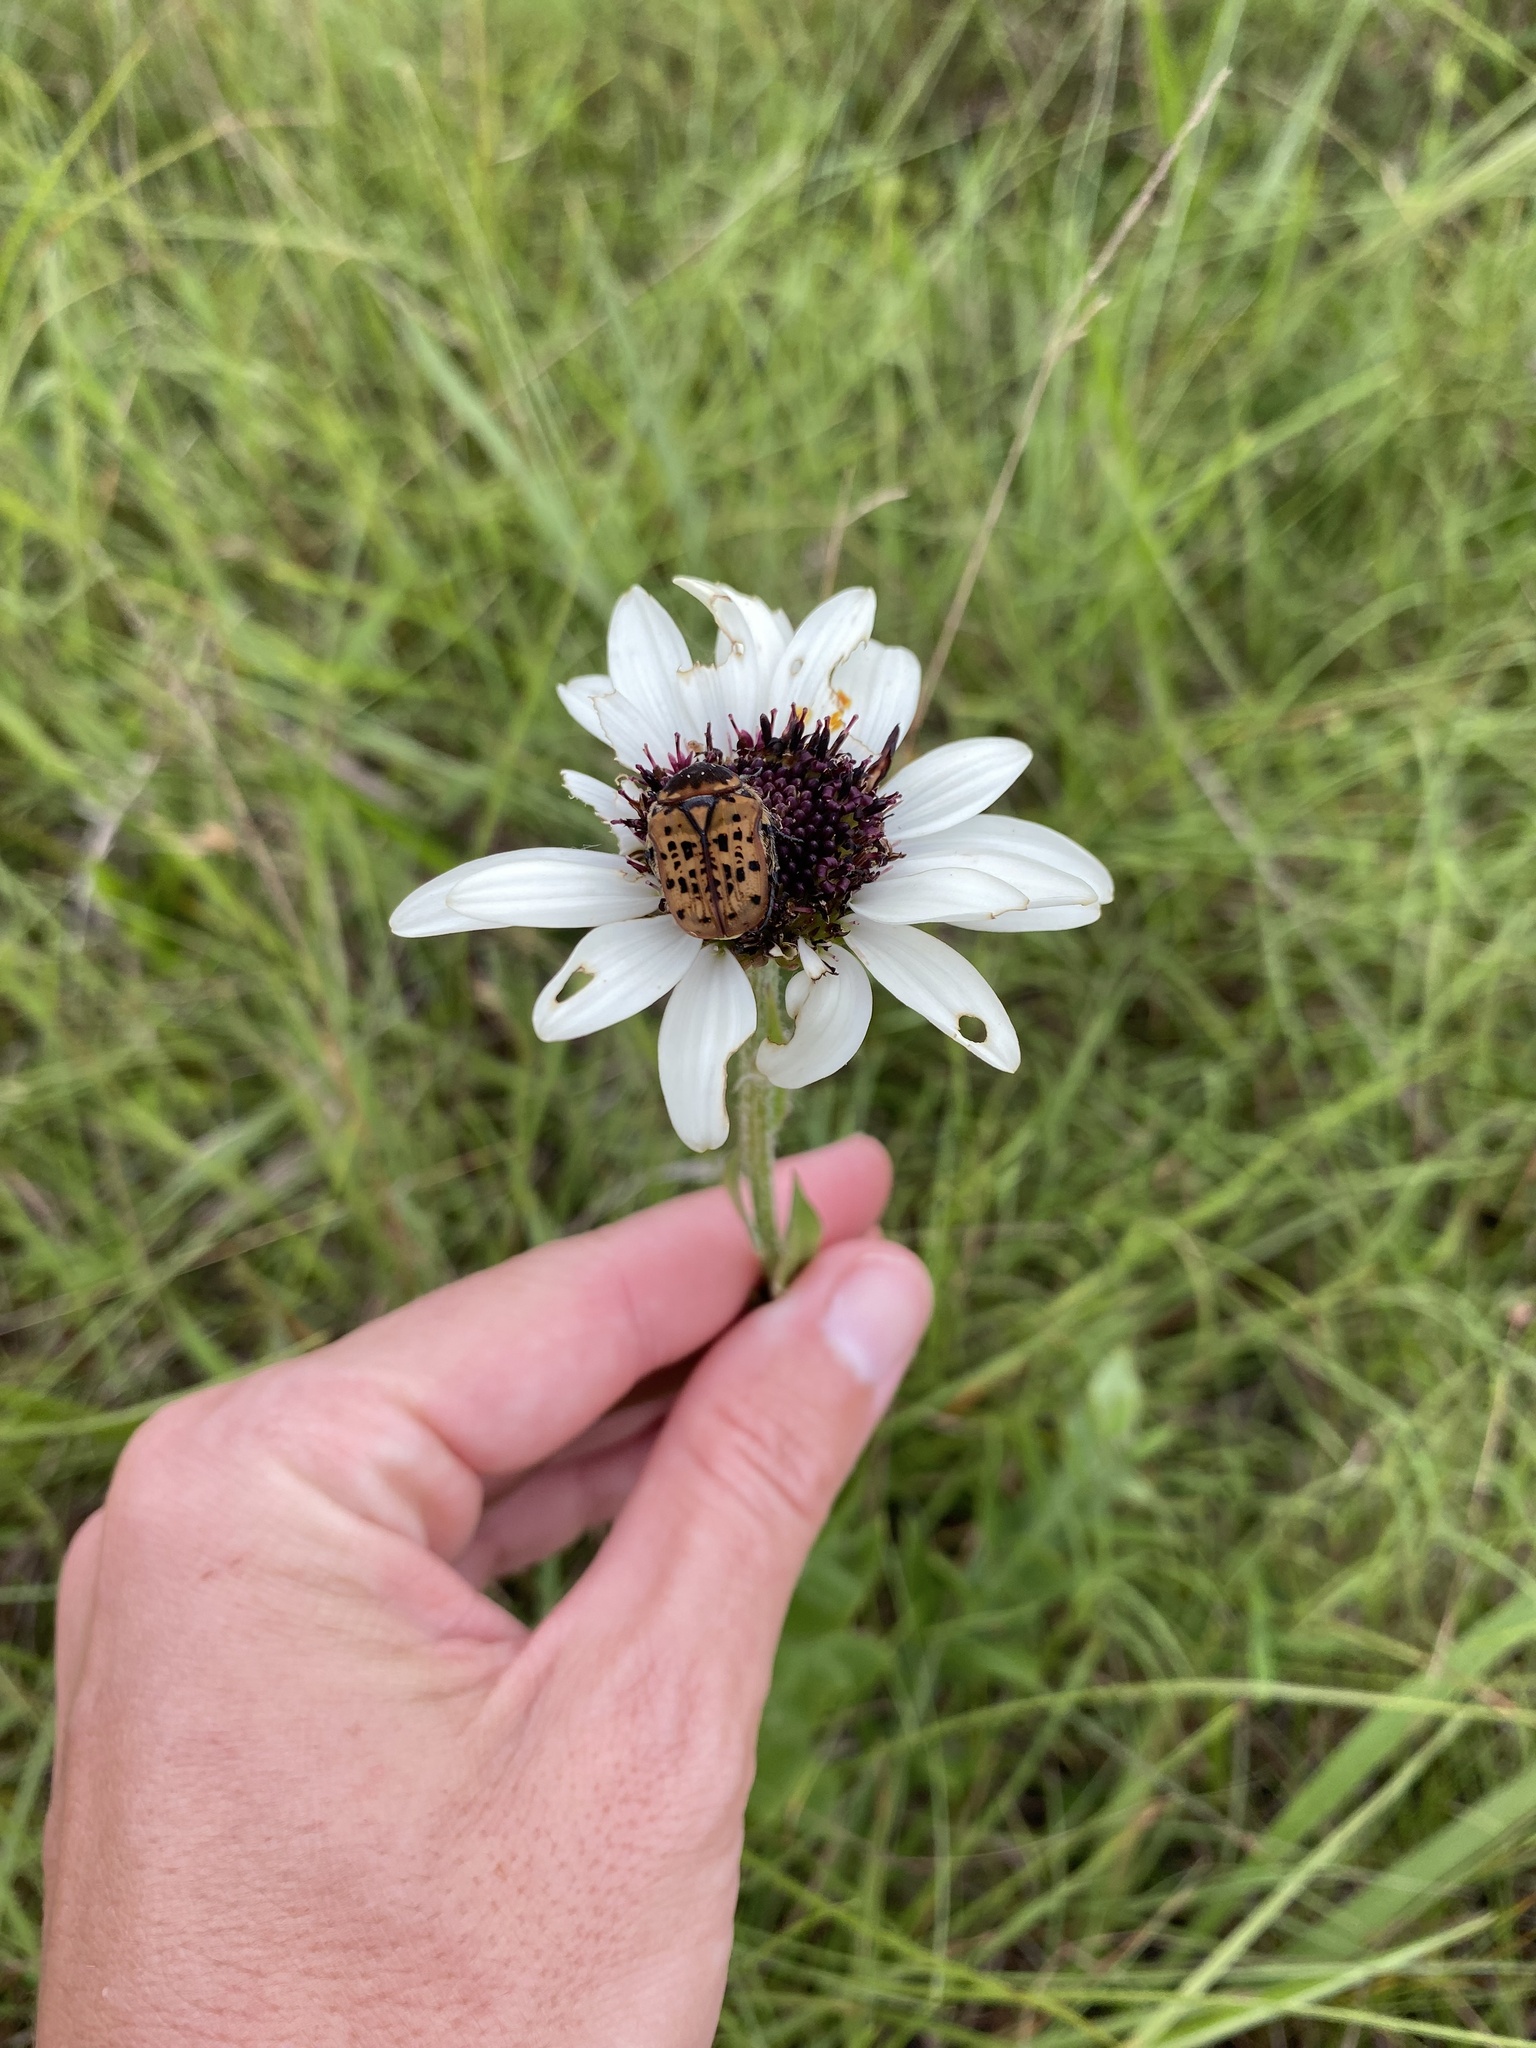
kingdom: Plantae
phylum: Tracheophyta
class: Magnoliopsida
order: Asterales
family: Asteraceae
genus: Callilepis
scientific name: Callilepis laureola
